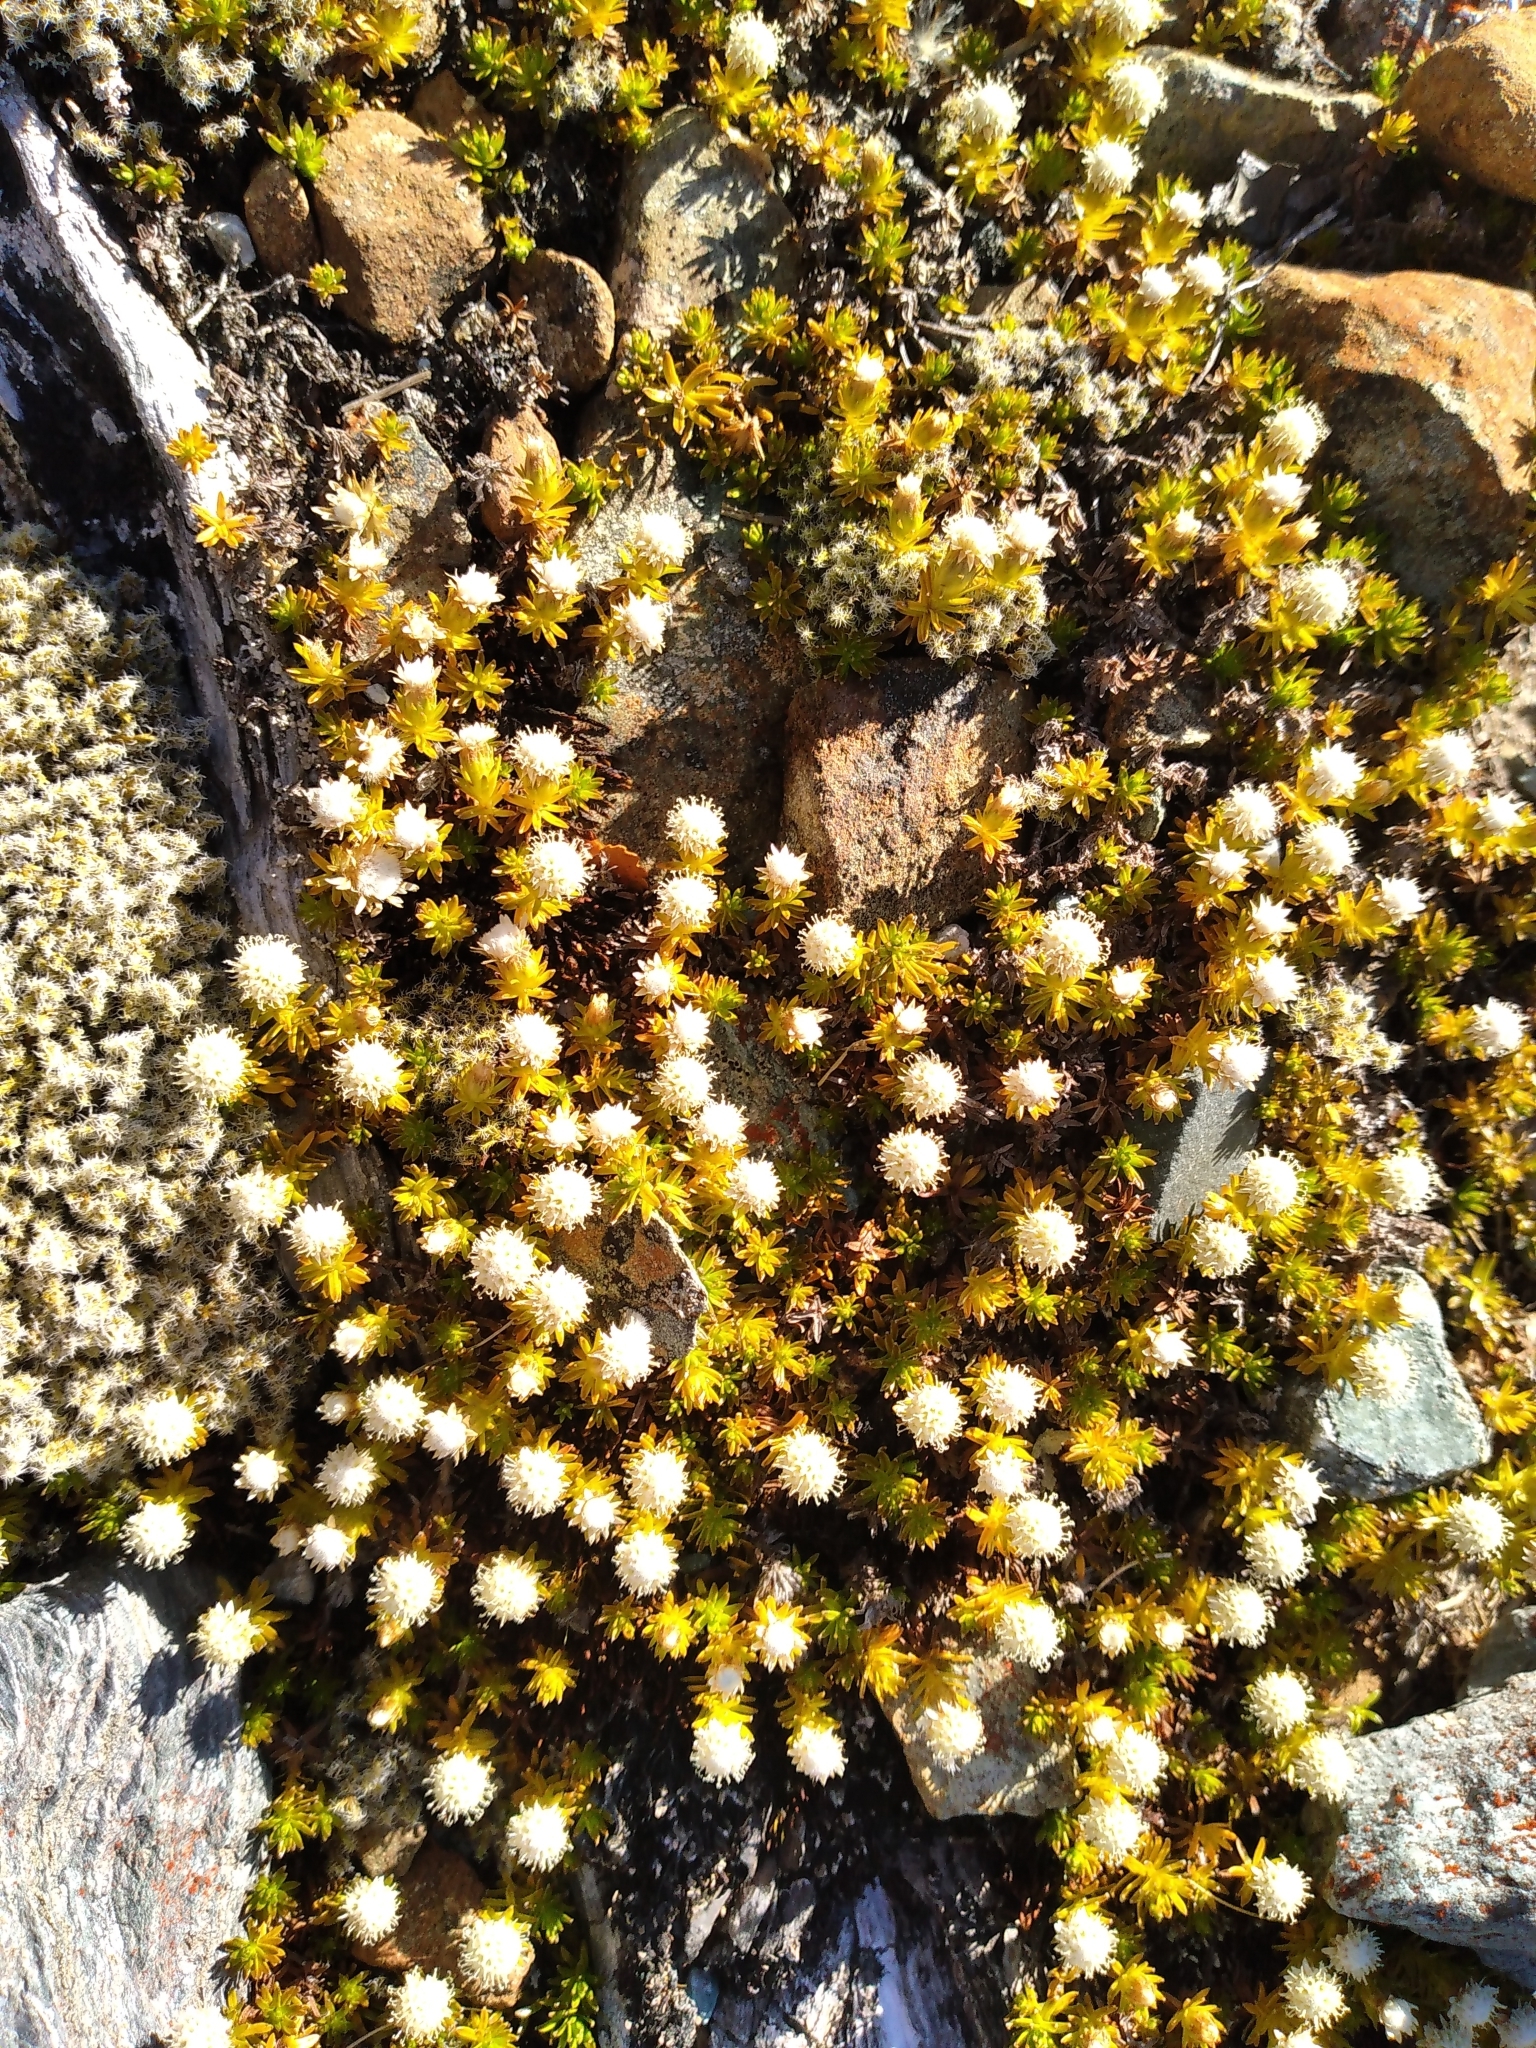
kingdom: Plantae
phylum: Tracheophyta
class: Magnoliopsida
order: Asterales
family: Asteraceae
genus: Raoulia
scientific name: Raoulia glabra
